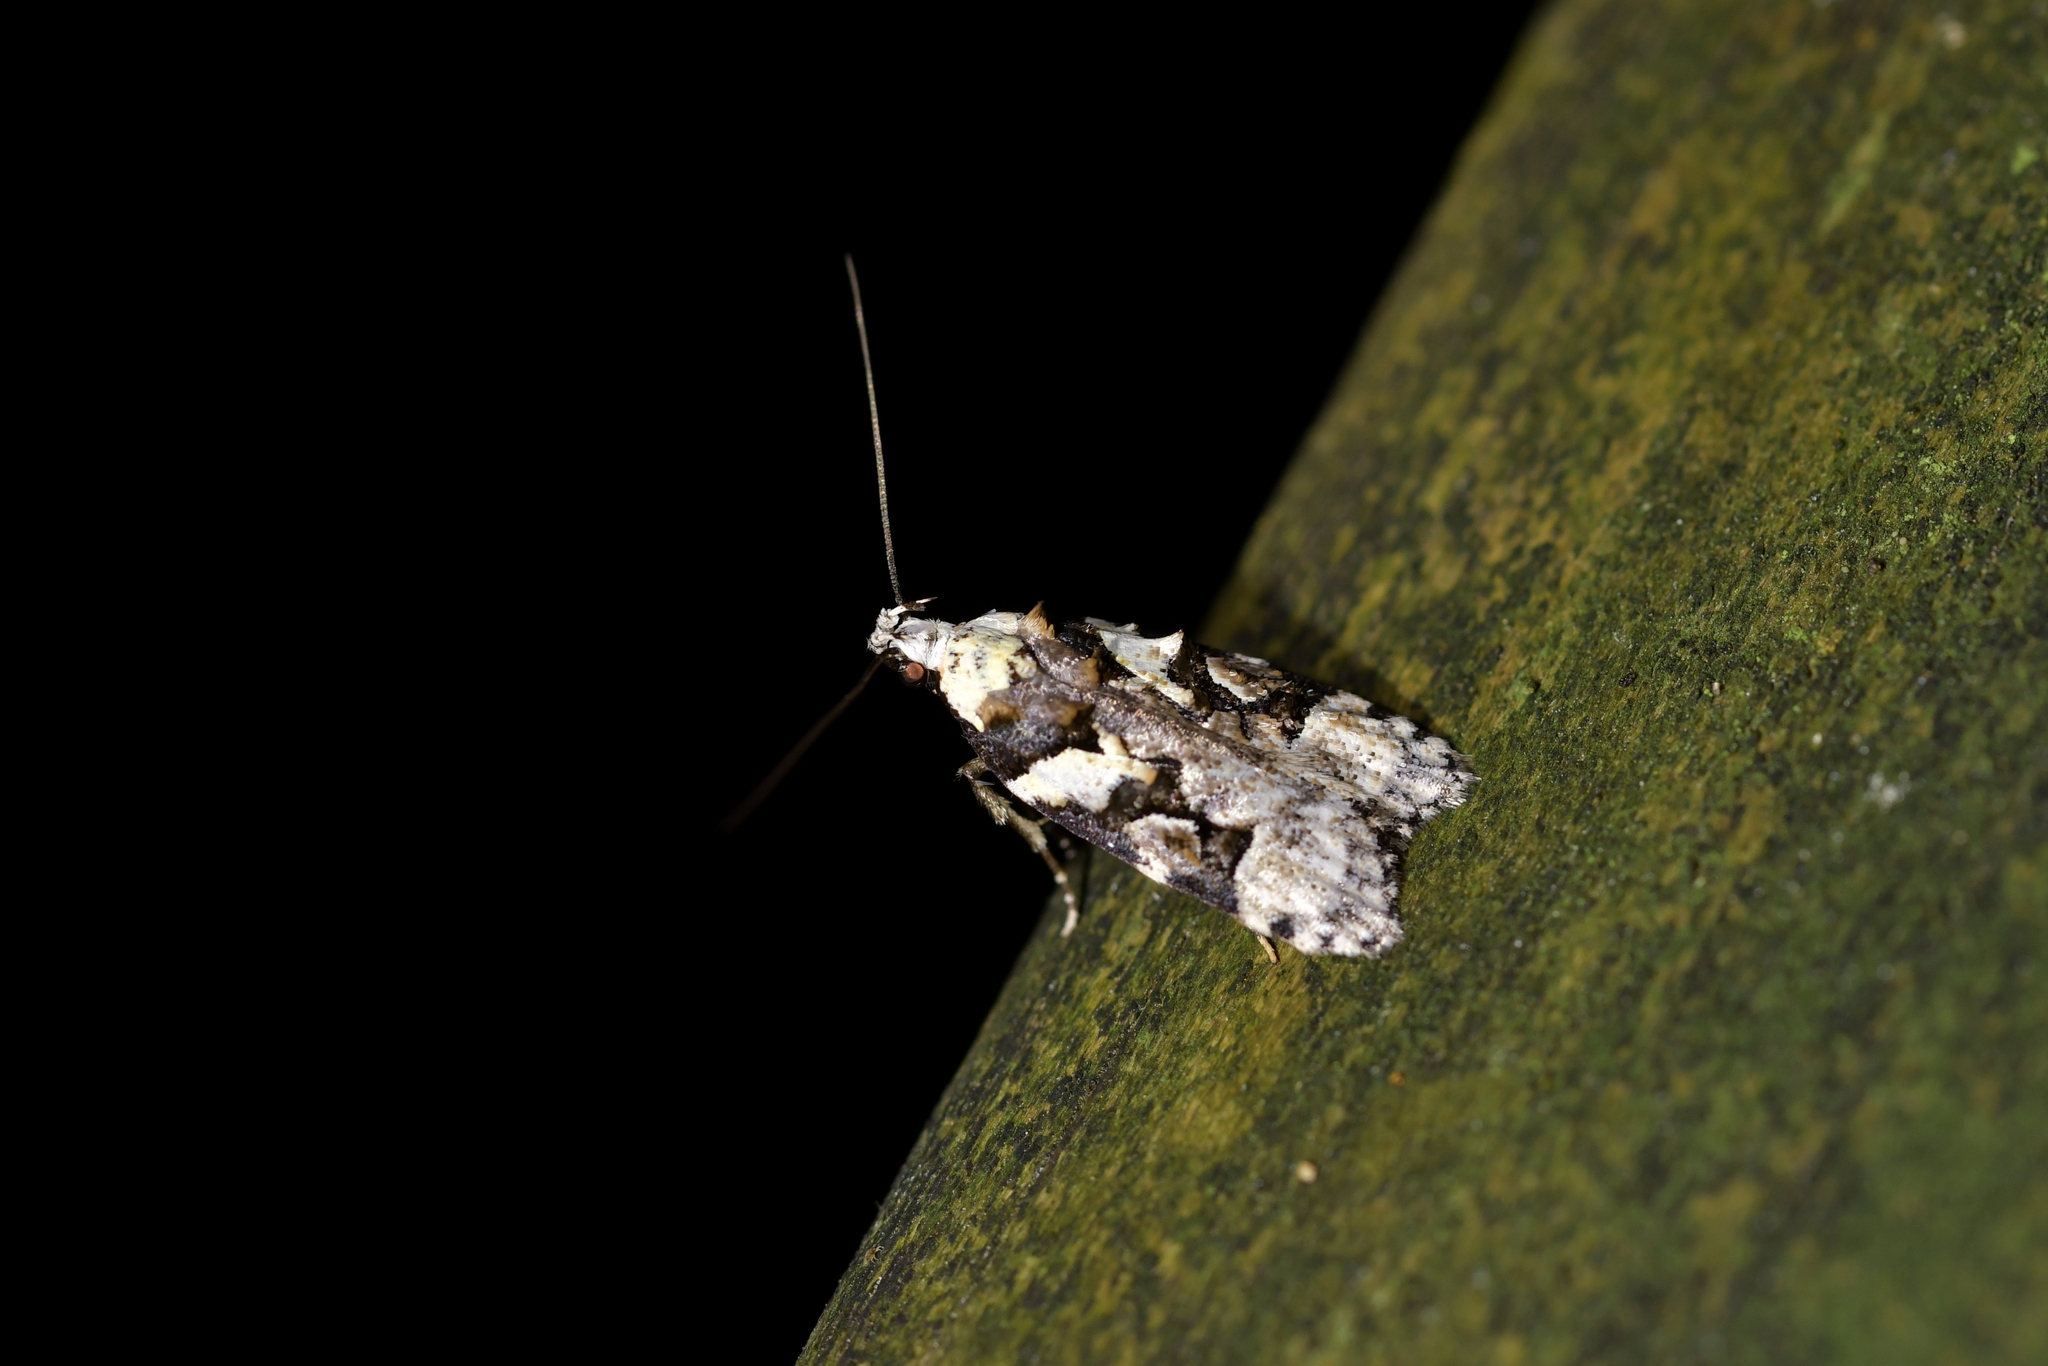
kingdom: Animalia
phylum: Arthropoda
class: Insecta
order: Lepidoptera
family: Oecophoridae
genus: Izatha
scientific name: Izatha epiphanes
